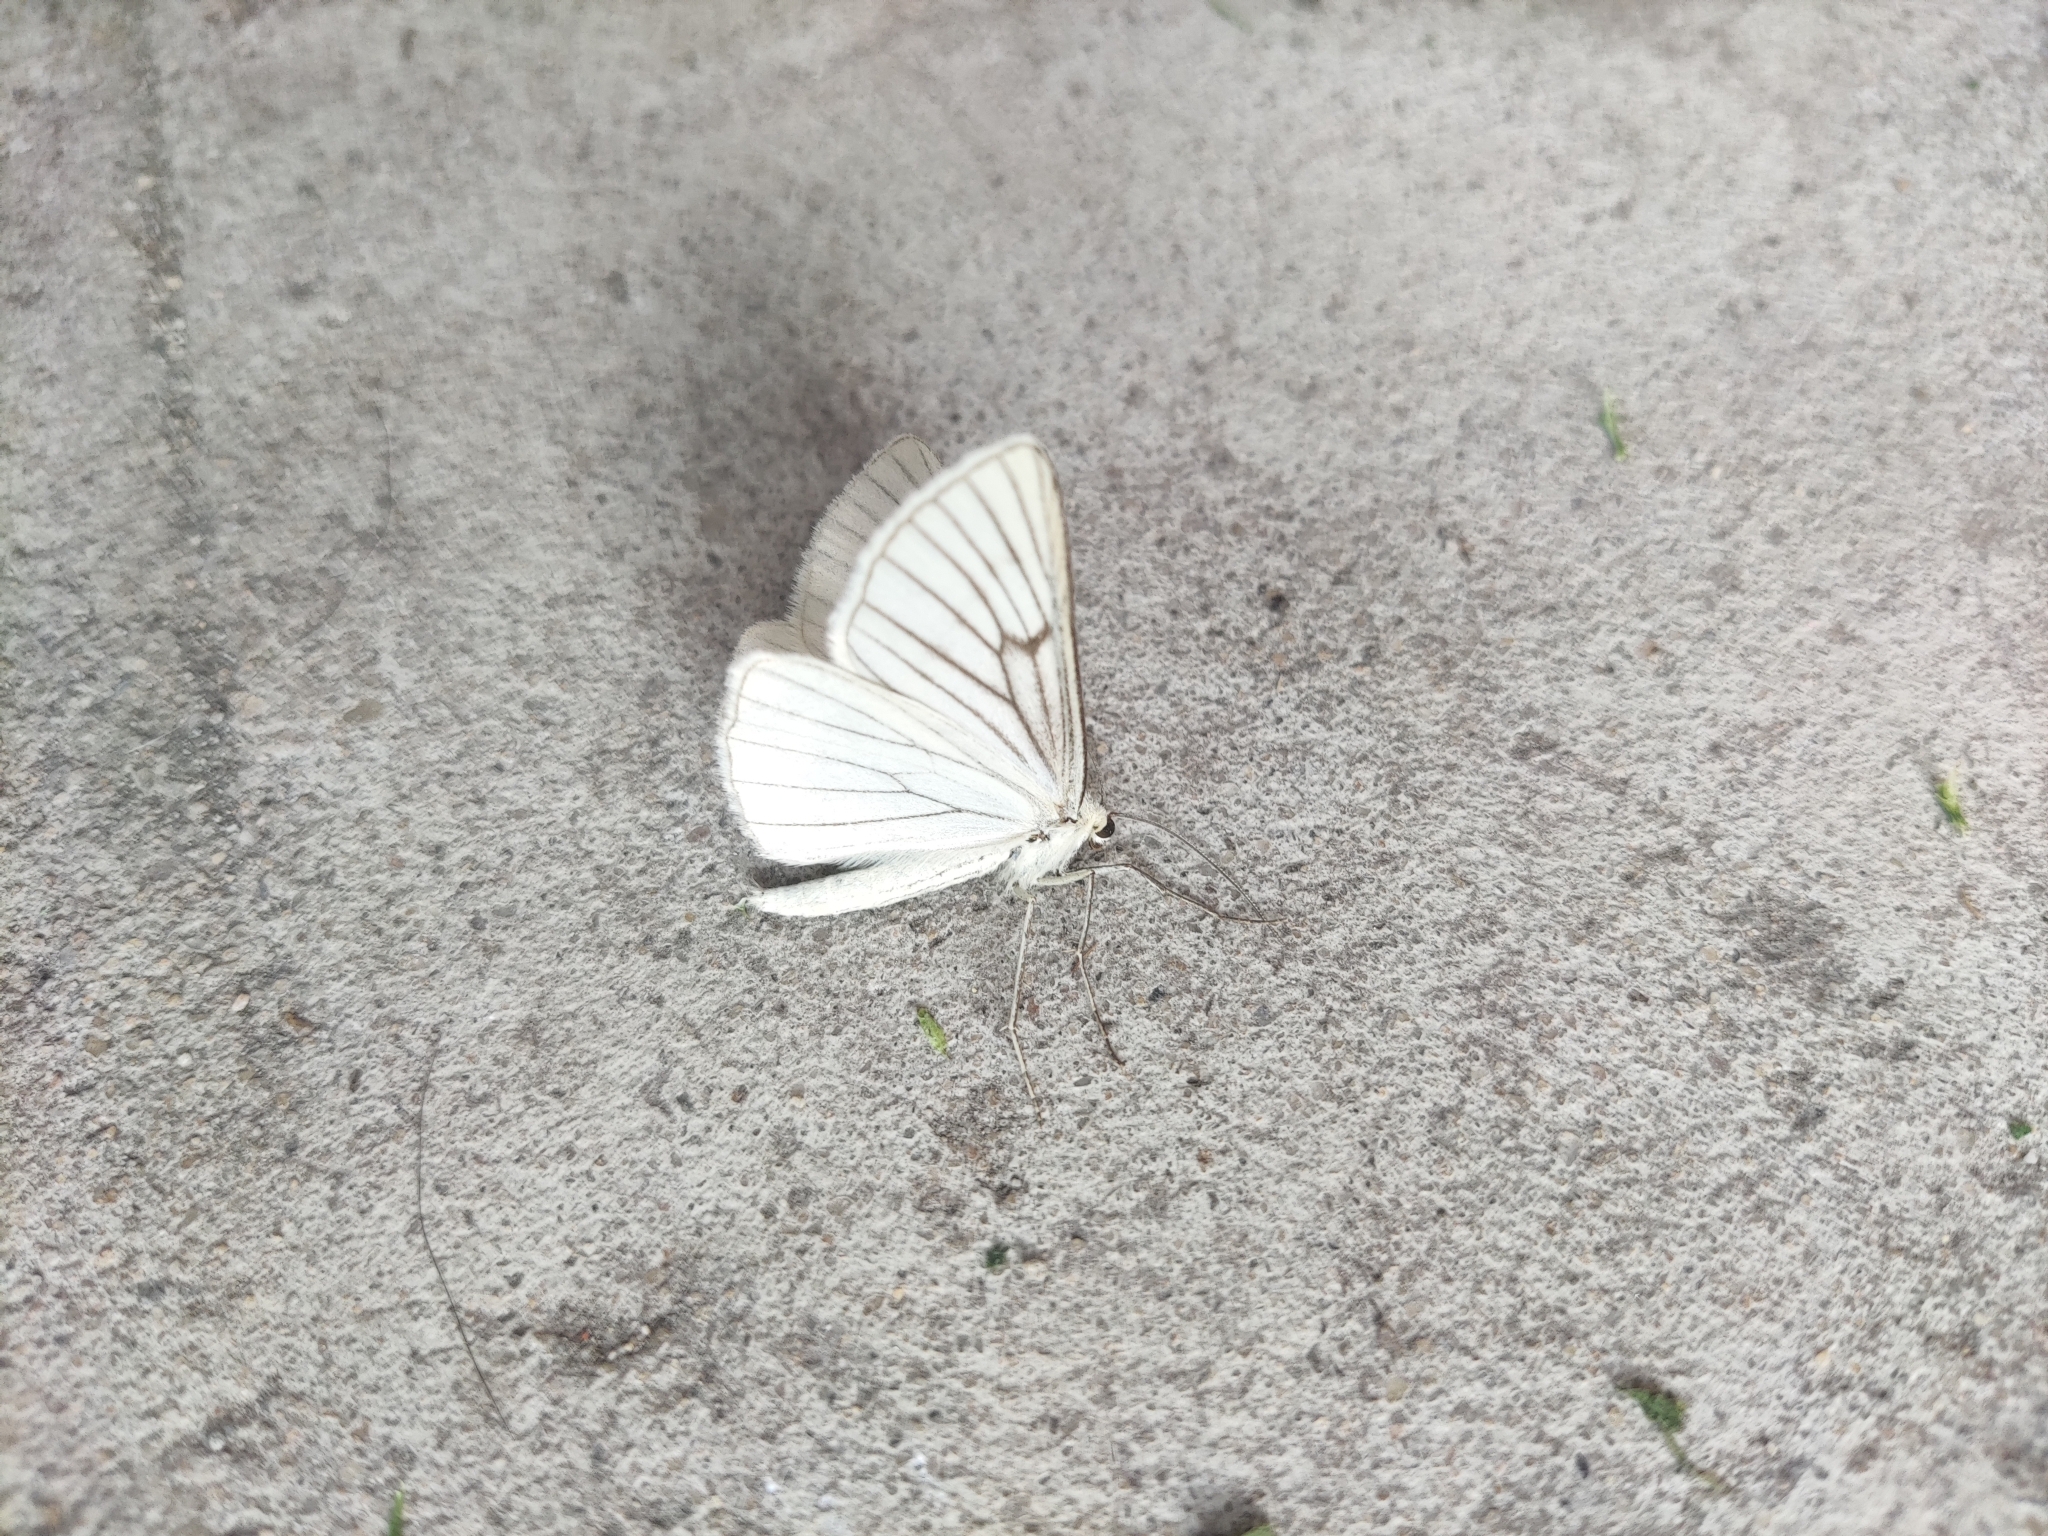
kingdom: Animalia
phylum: Arthropoda
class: Insecta
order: Lepidoptera
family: Geometridae
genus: Siona
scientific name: Siona lineata
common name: Black-veined moth
